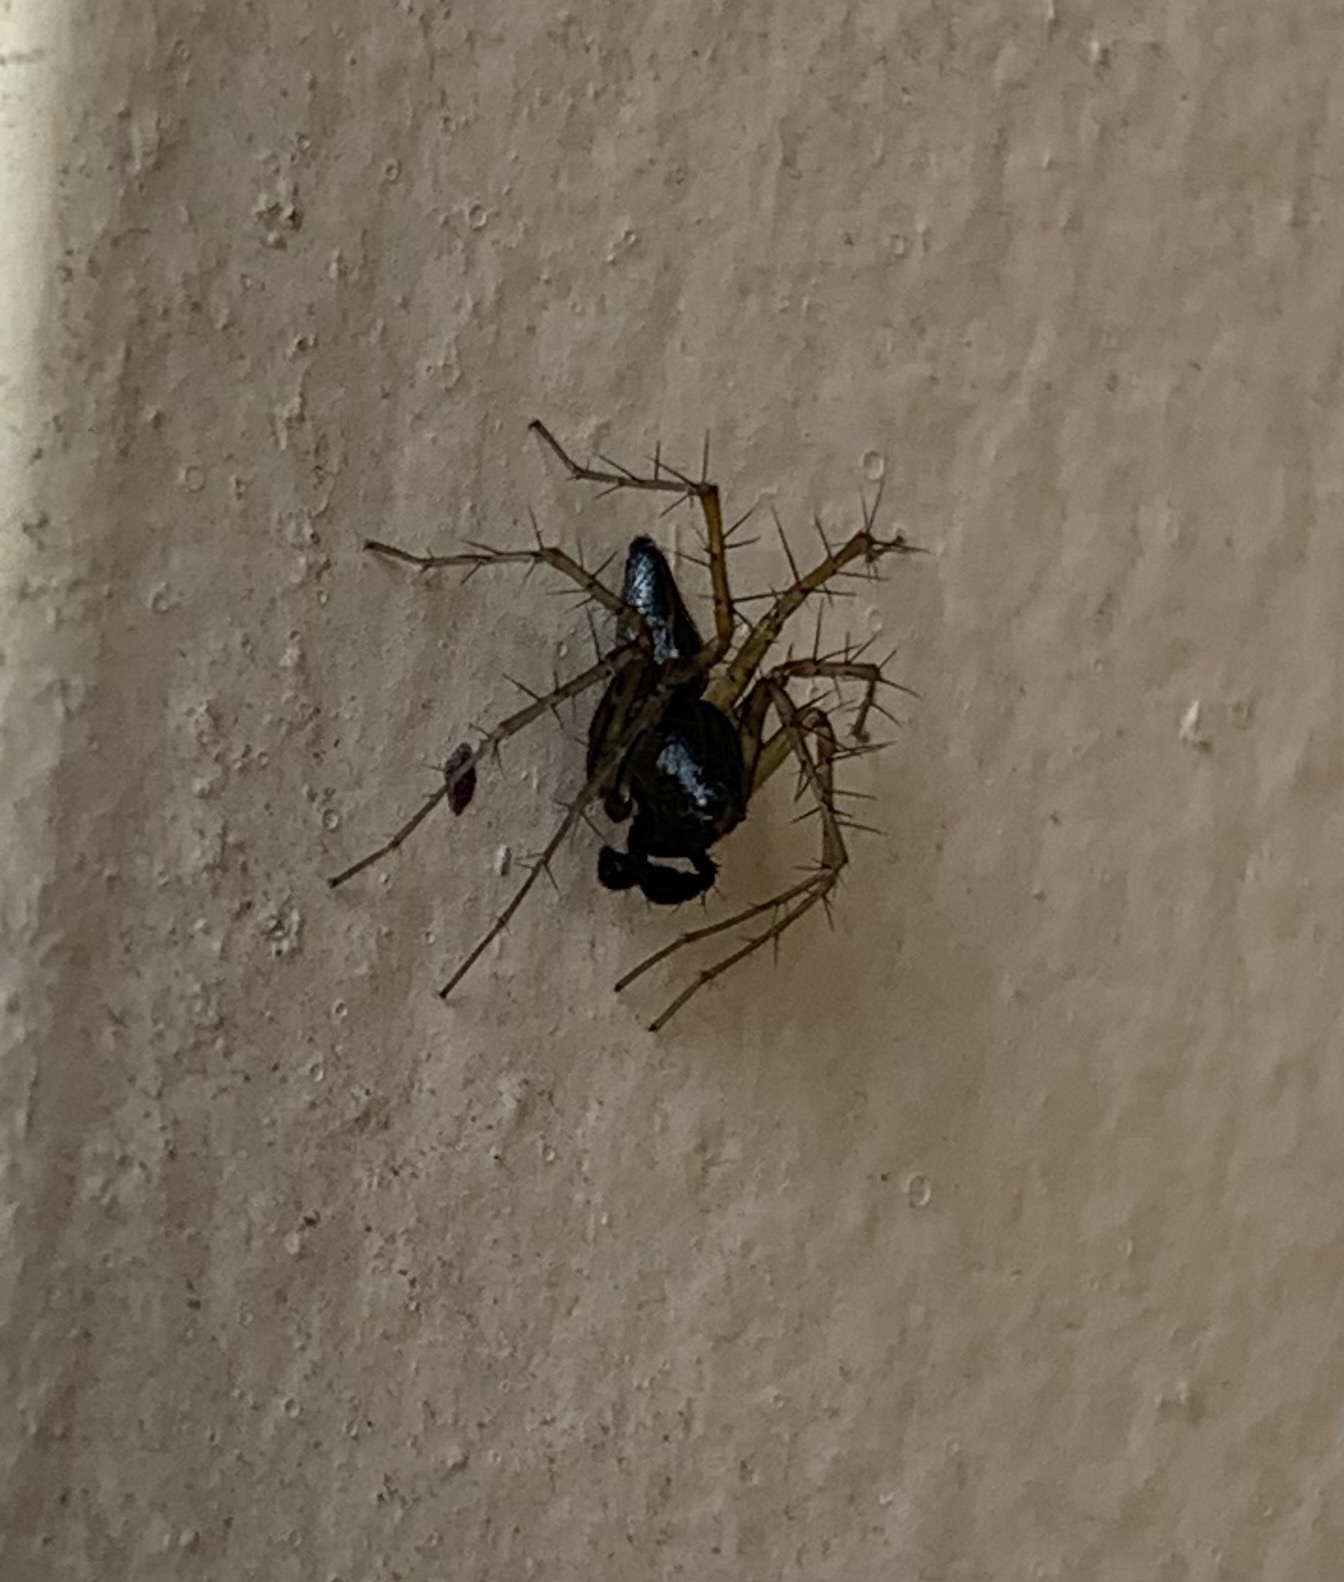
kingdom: Animalia
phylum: Arthropoda
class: Arachnida
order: Araneae
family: Oxyopidae
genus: Oxyopes
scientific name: Oxyopes salticus
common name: Lynx spiders
